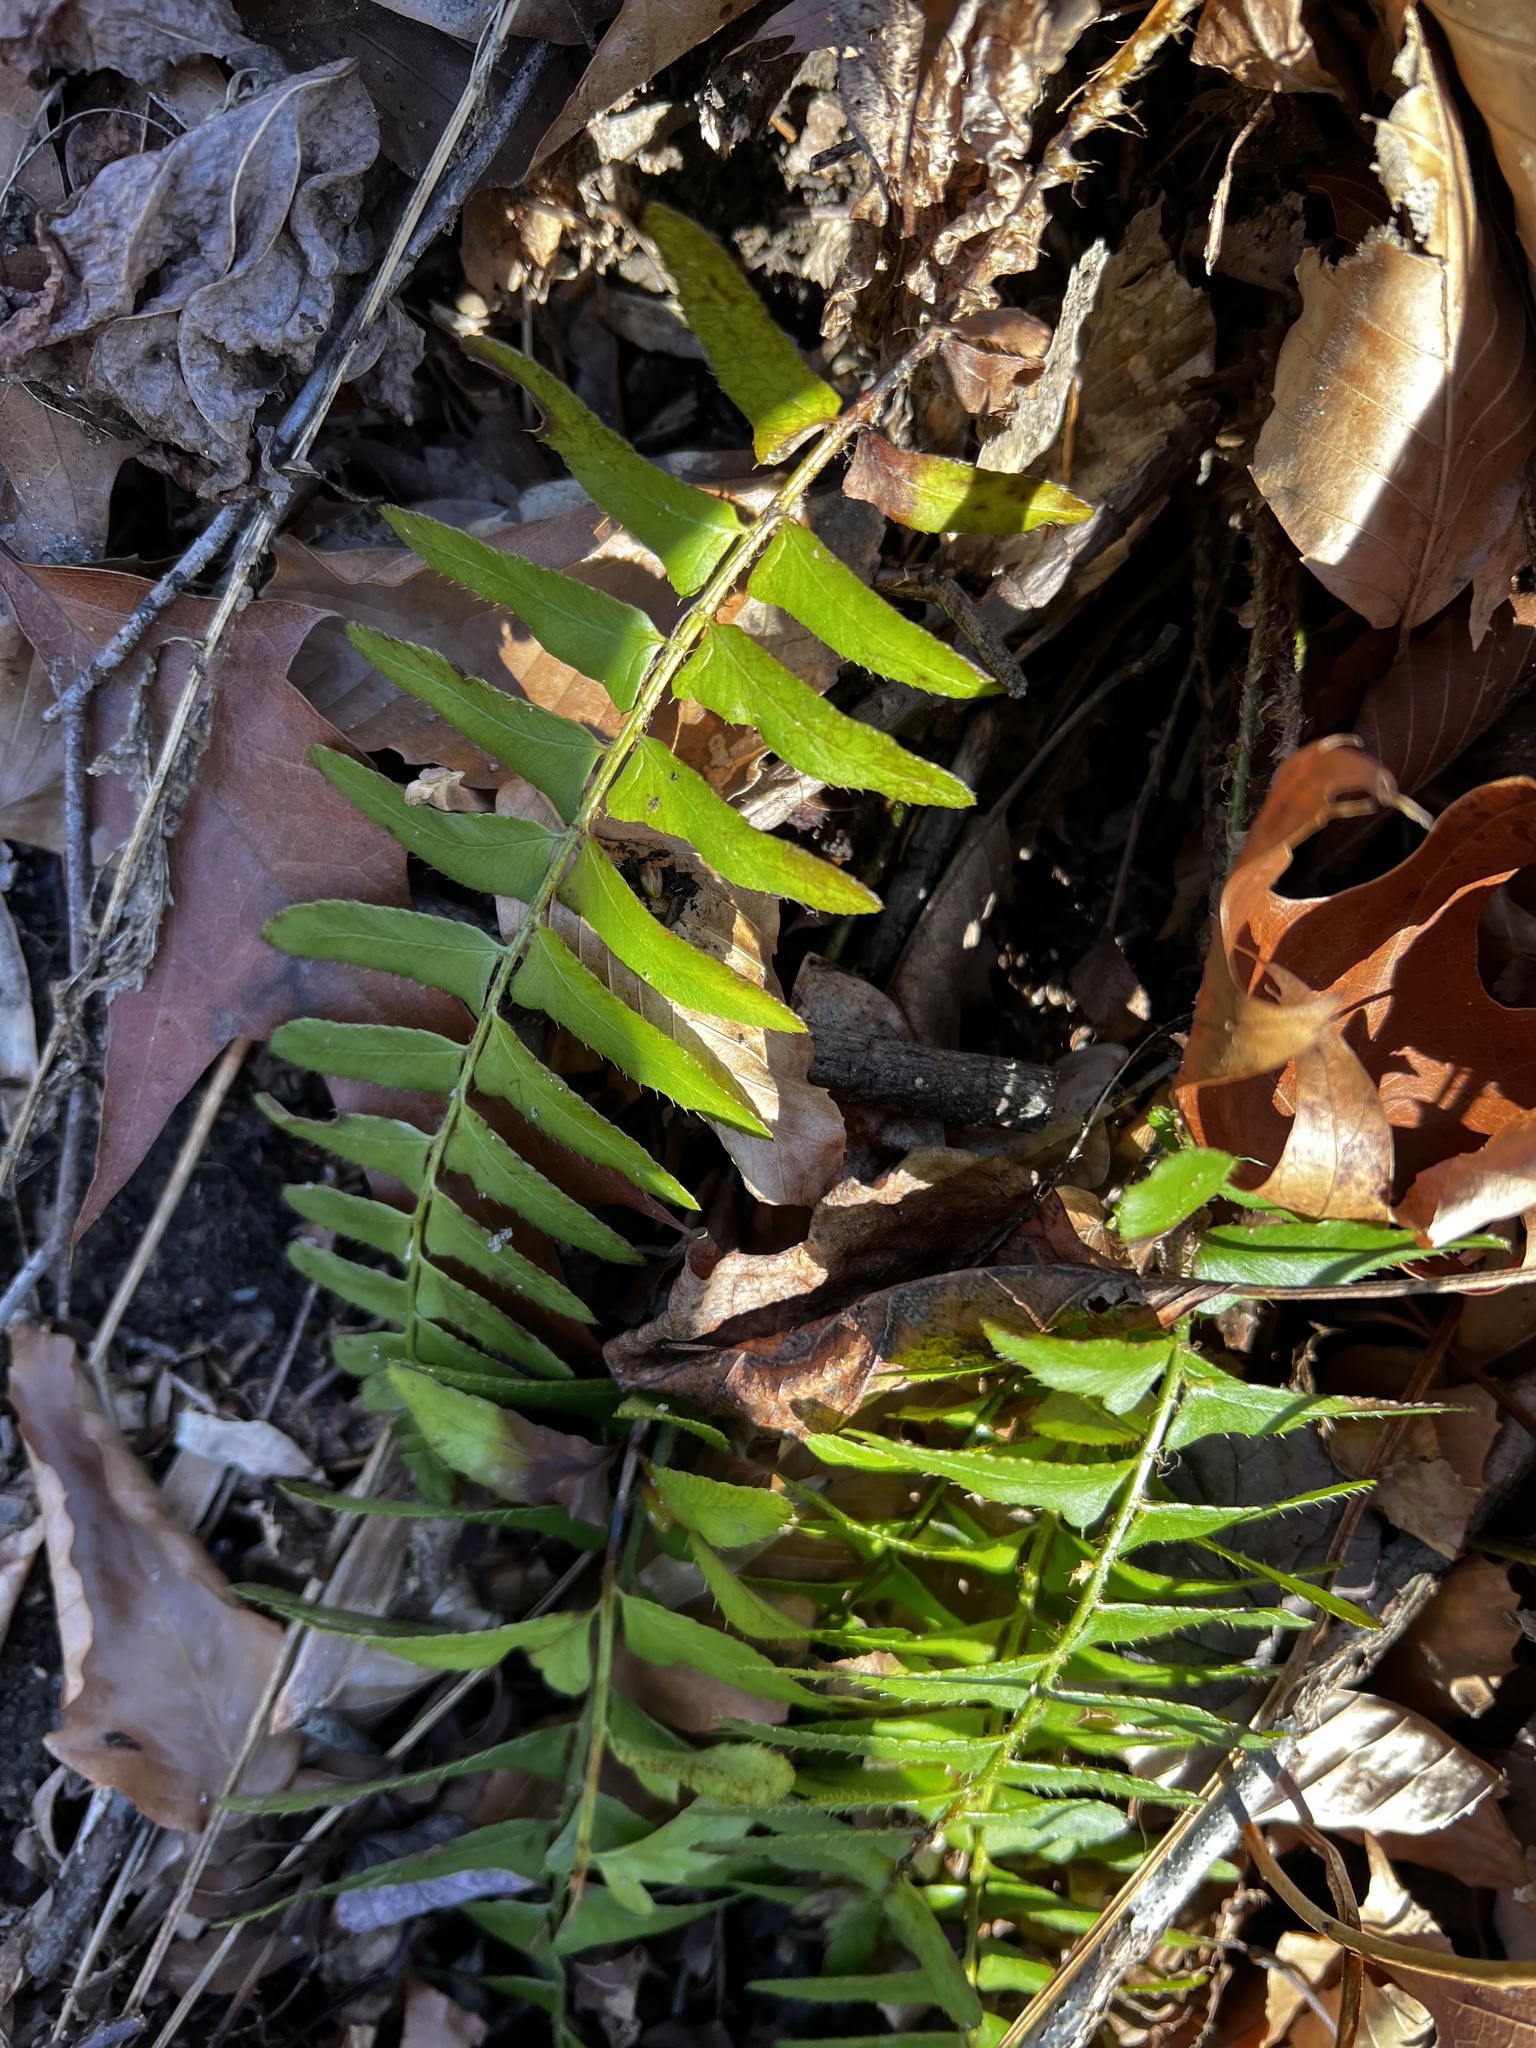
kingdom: Plantae
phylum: Tracheophyta
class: Polypodiopsida
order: Polypodiales
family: Dryopteridaceae
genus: Polystichum
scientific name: Polystichum acrostichoides
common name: Christmas fern
